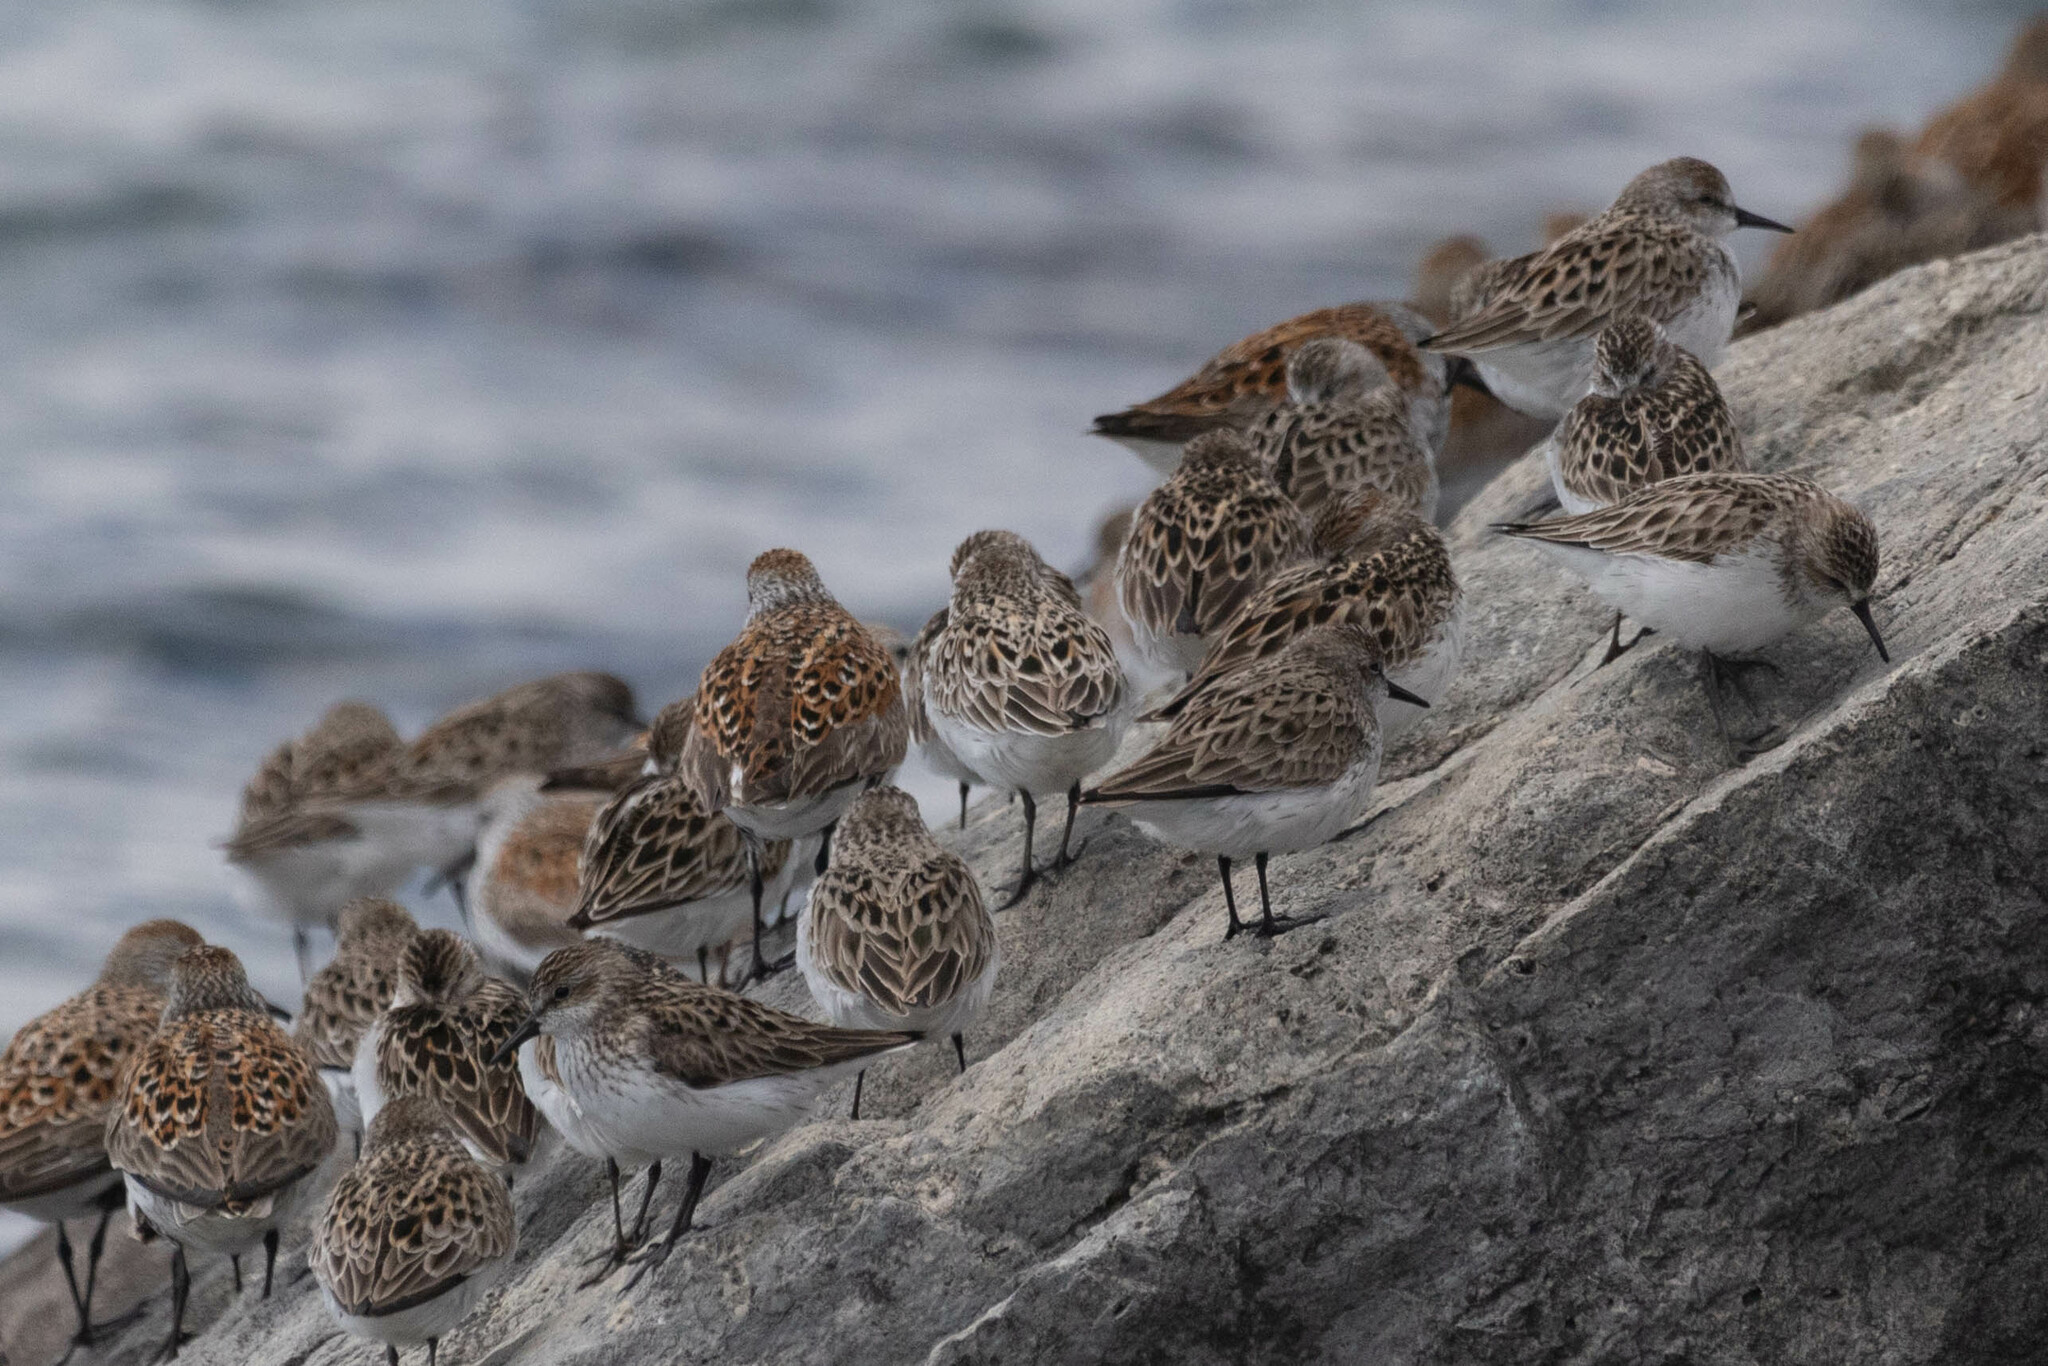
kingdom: Animalia
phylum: Chordata
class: Aves
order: Charadriiformes
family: Scolopacidae
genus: Calidris
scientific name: Calidris pusilla
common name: Semipalmated sandpiper
